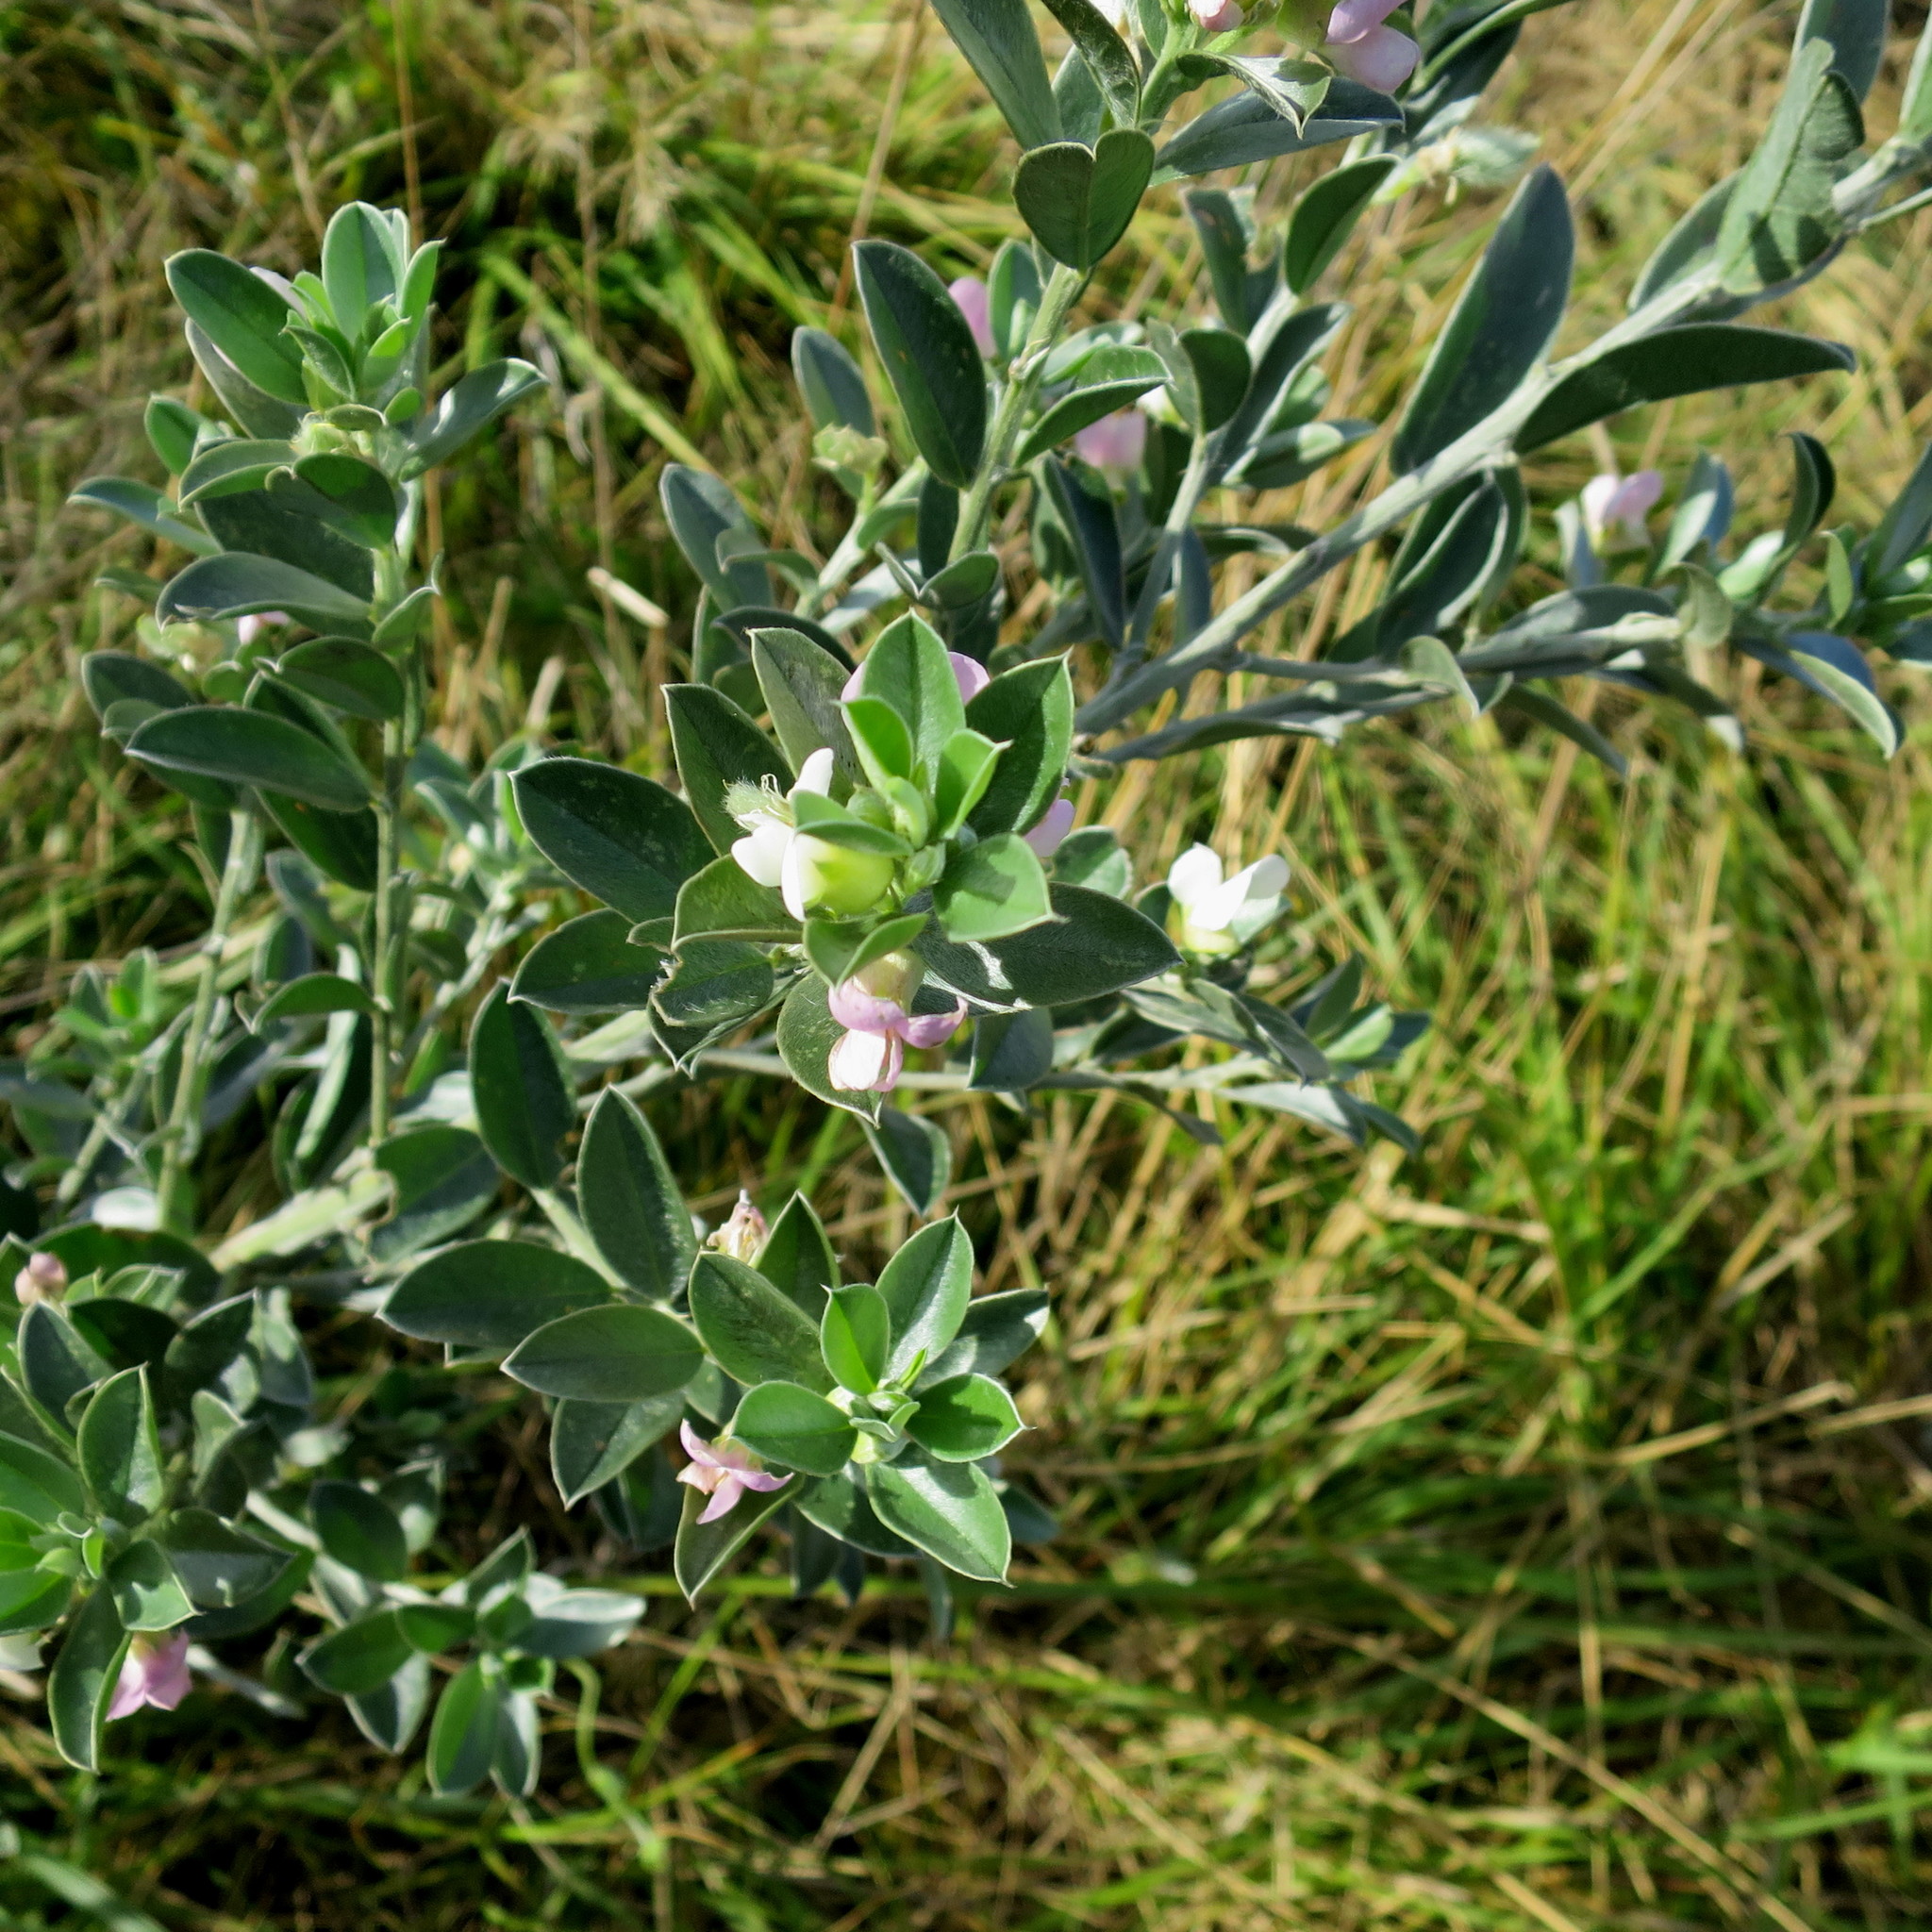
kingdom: Plantae
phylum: Tracheophyta
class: Magnoliopsida
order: Fabales
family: Fabaceae
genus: Podalyria
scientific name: Podalyria myrtillifolia
